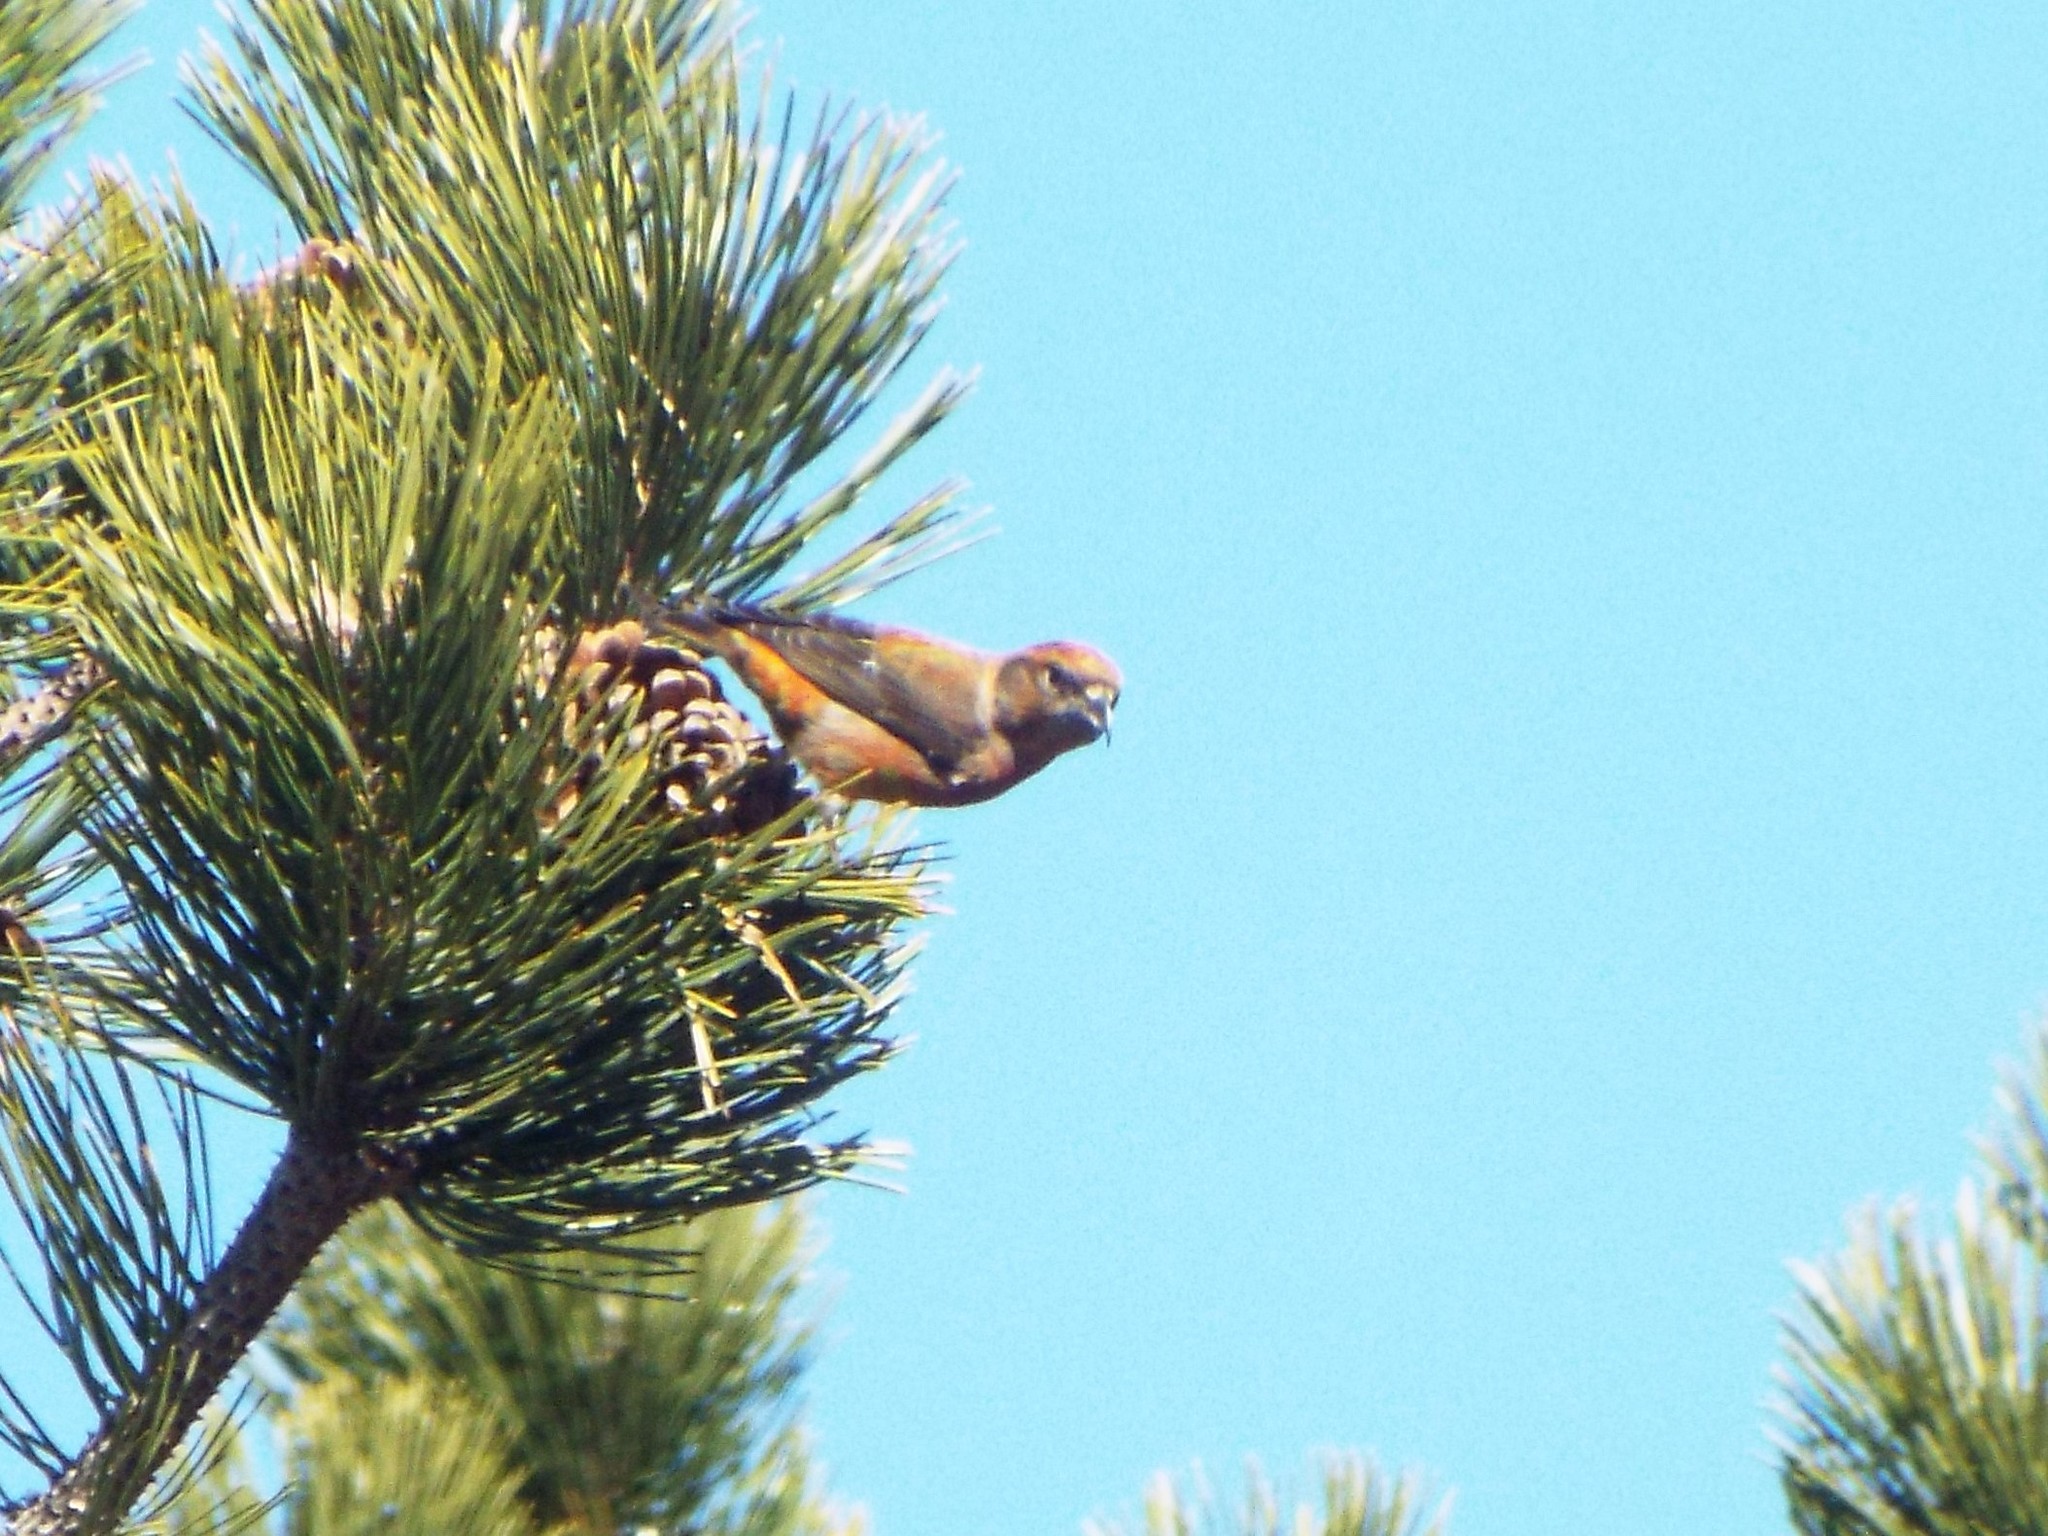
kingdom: Animalia
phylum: Chordata
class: Aves
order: Passeriformes
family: Fringillidae
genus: Loxia
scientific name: Loxia curvirostra
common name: Red crossbill
